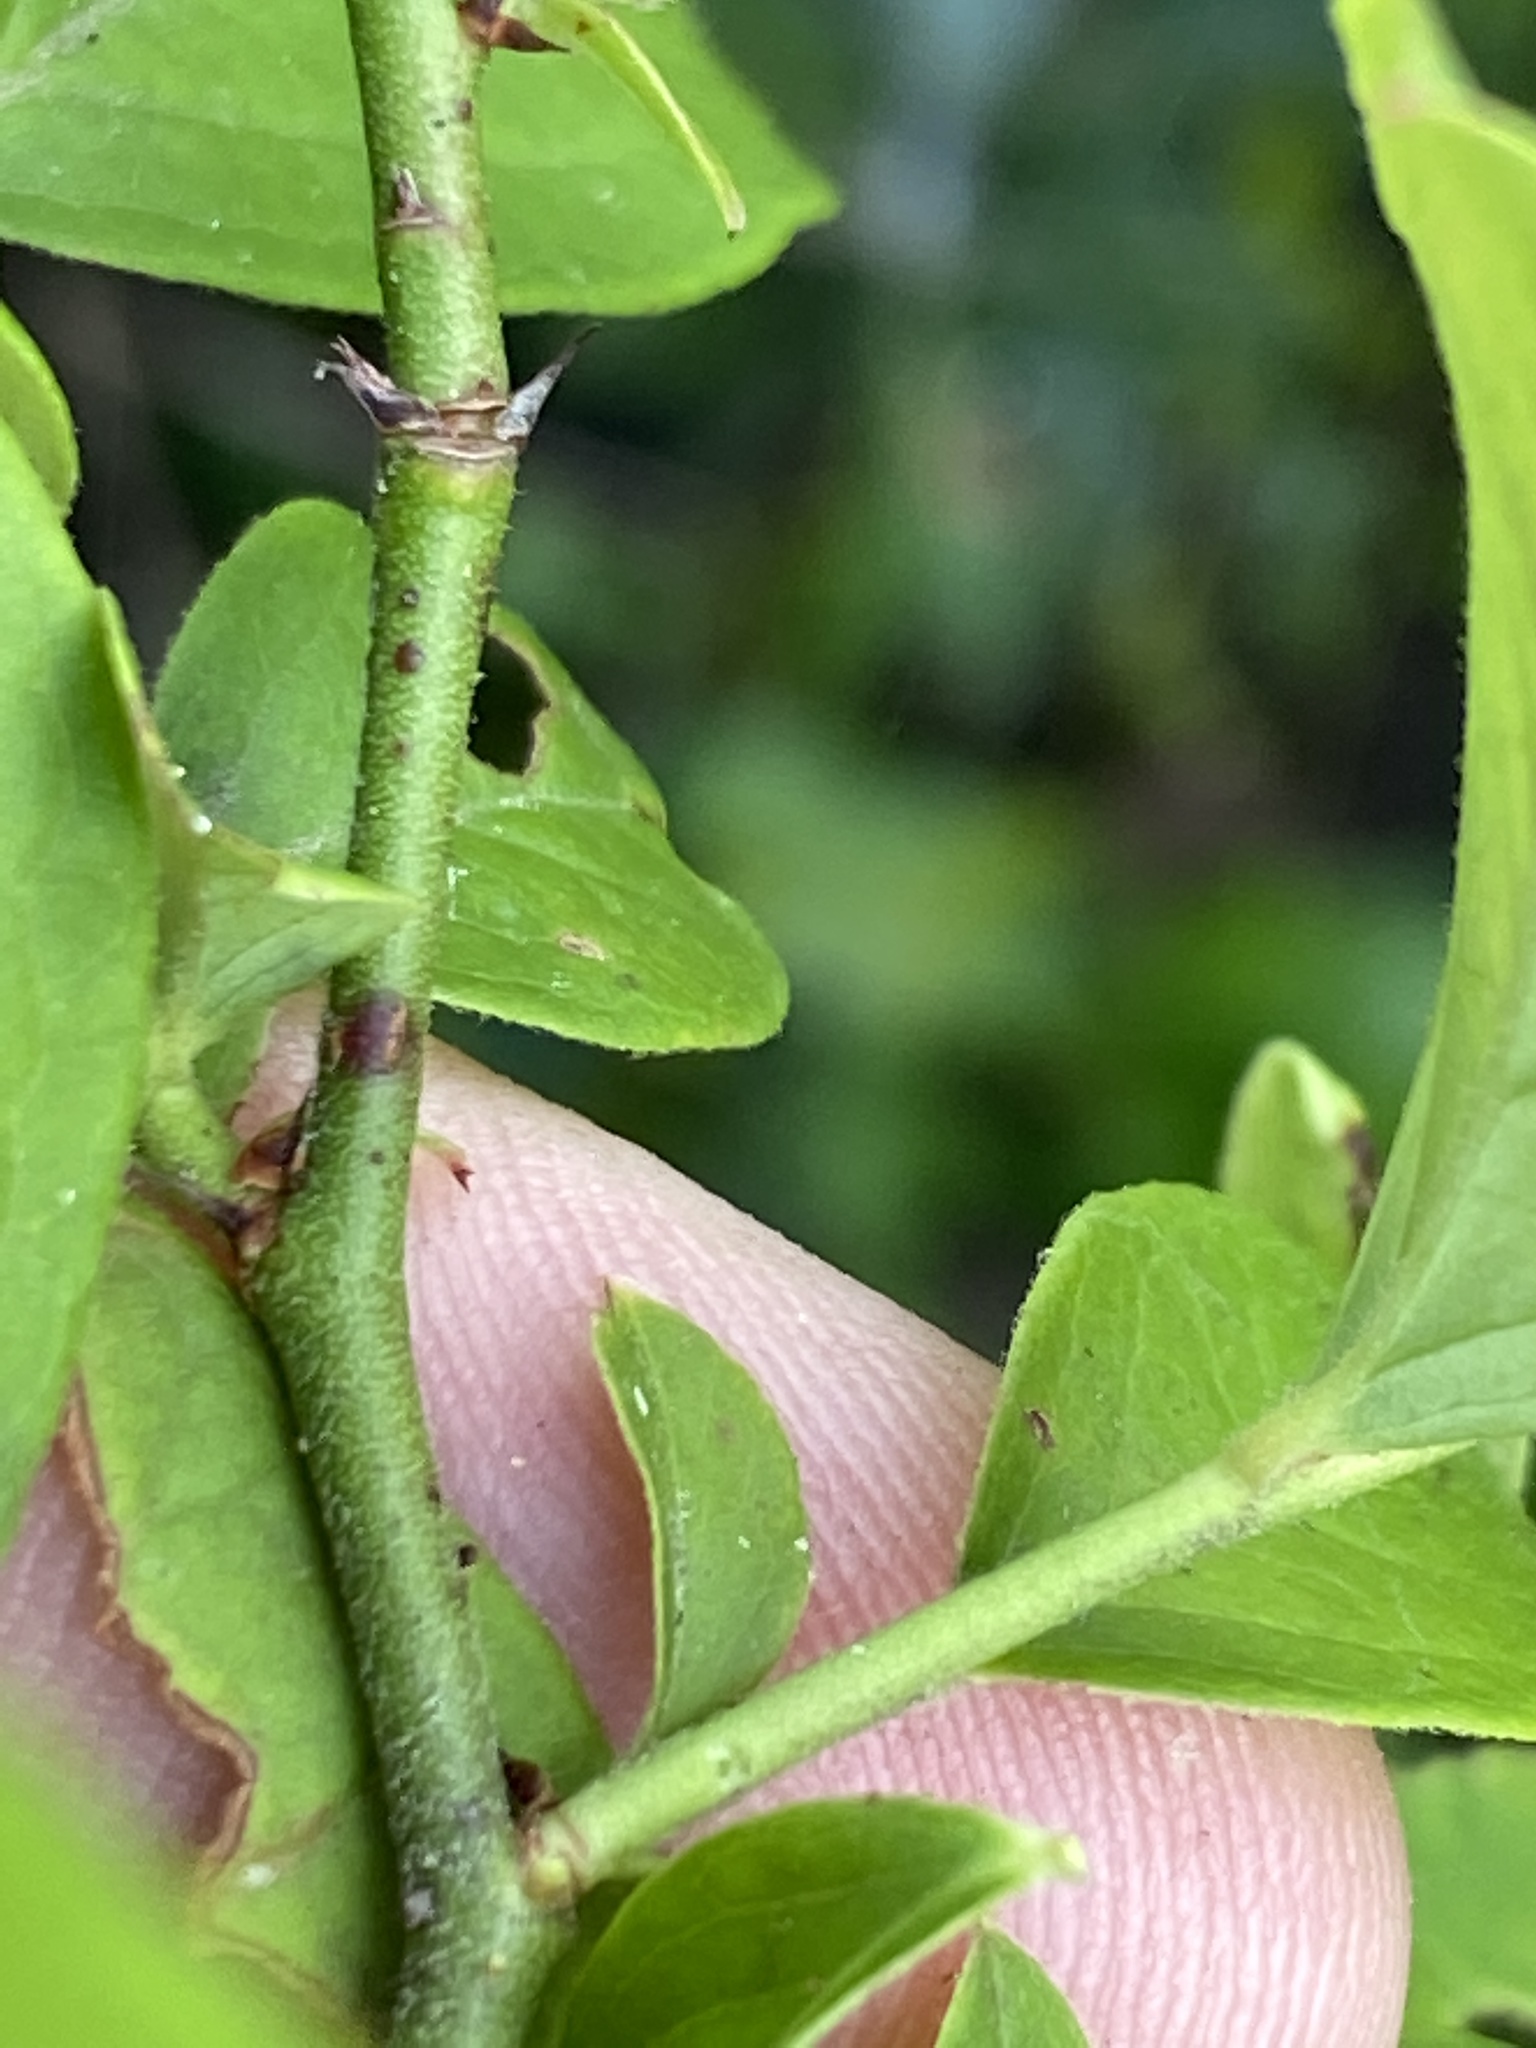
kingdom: Plantae
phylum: Tracheophyta
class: Magnoliopsida
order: Ericales
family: Ericaceae
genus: Vaccinium
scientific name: Vaccinium corymbosum
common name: Blueberry
